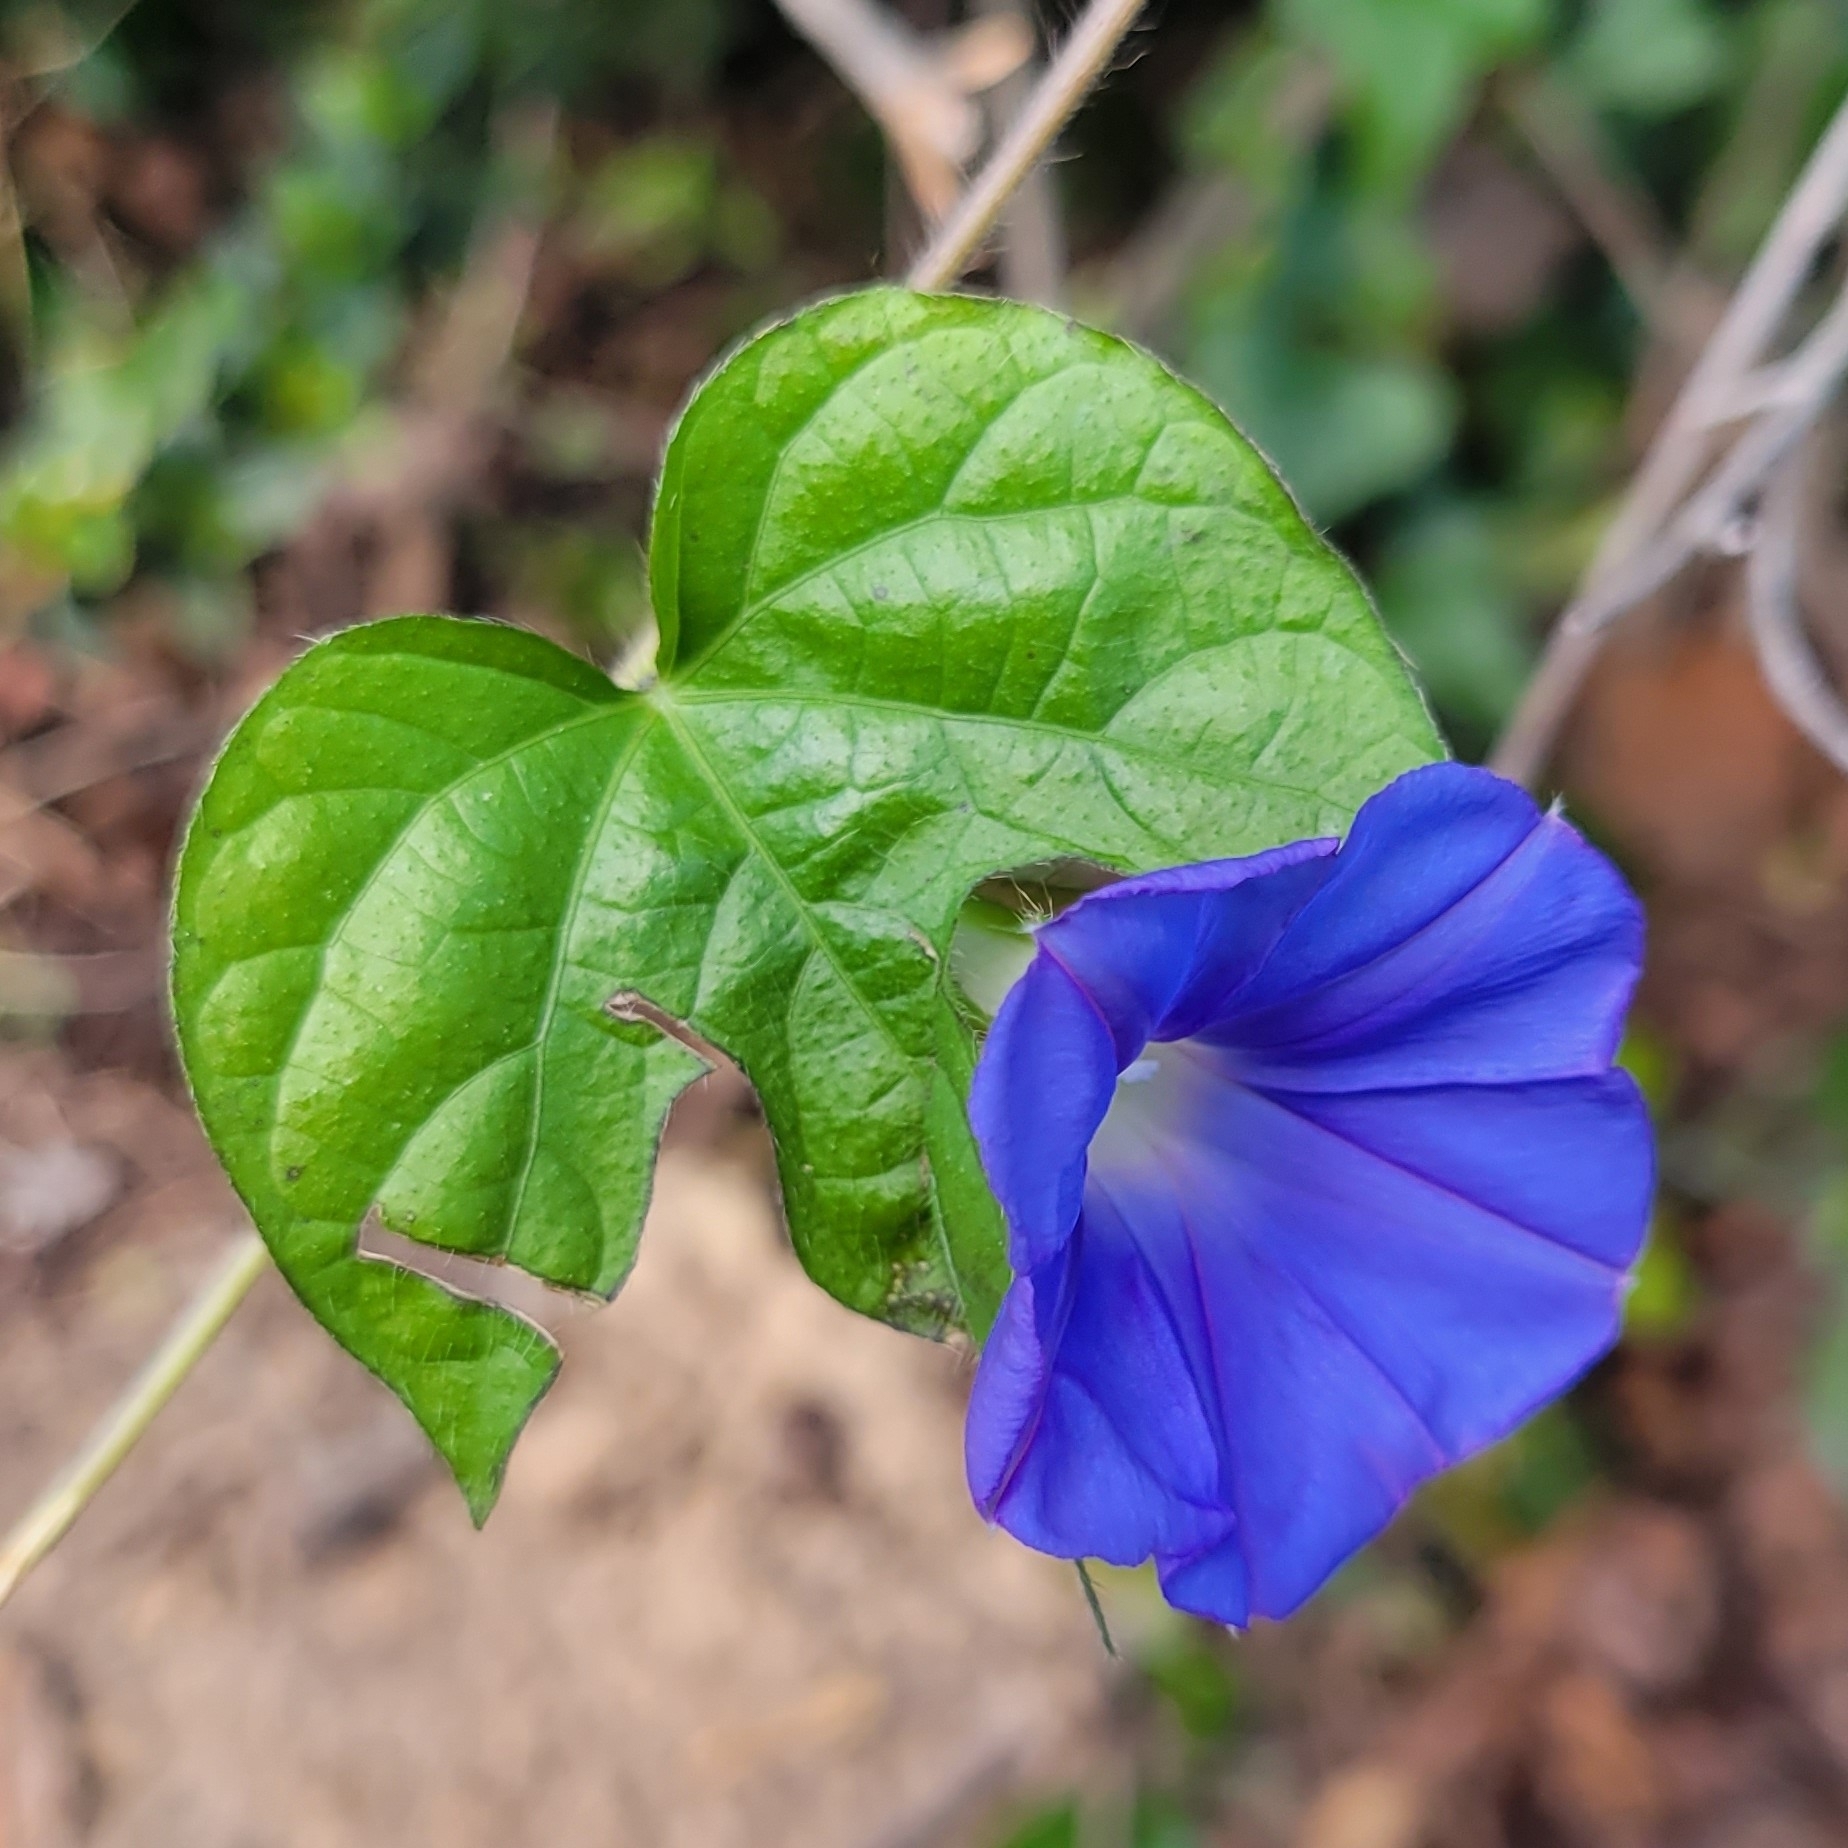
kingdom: Plantae
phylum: Tracheophyta
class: Magnoliopsida
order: Solanales
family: Convolvulaceae
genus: Ipomoea
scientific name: Ipomoea hederacea
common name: Ivy-leaved morning-glory
